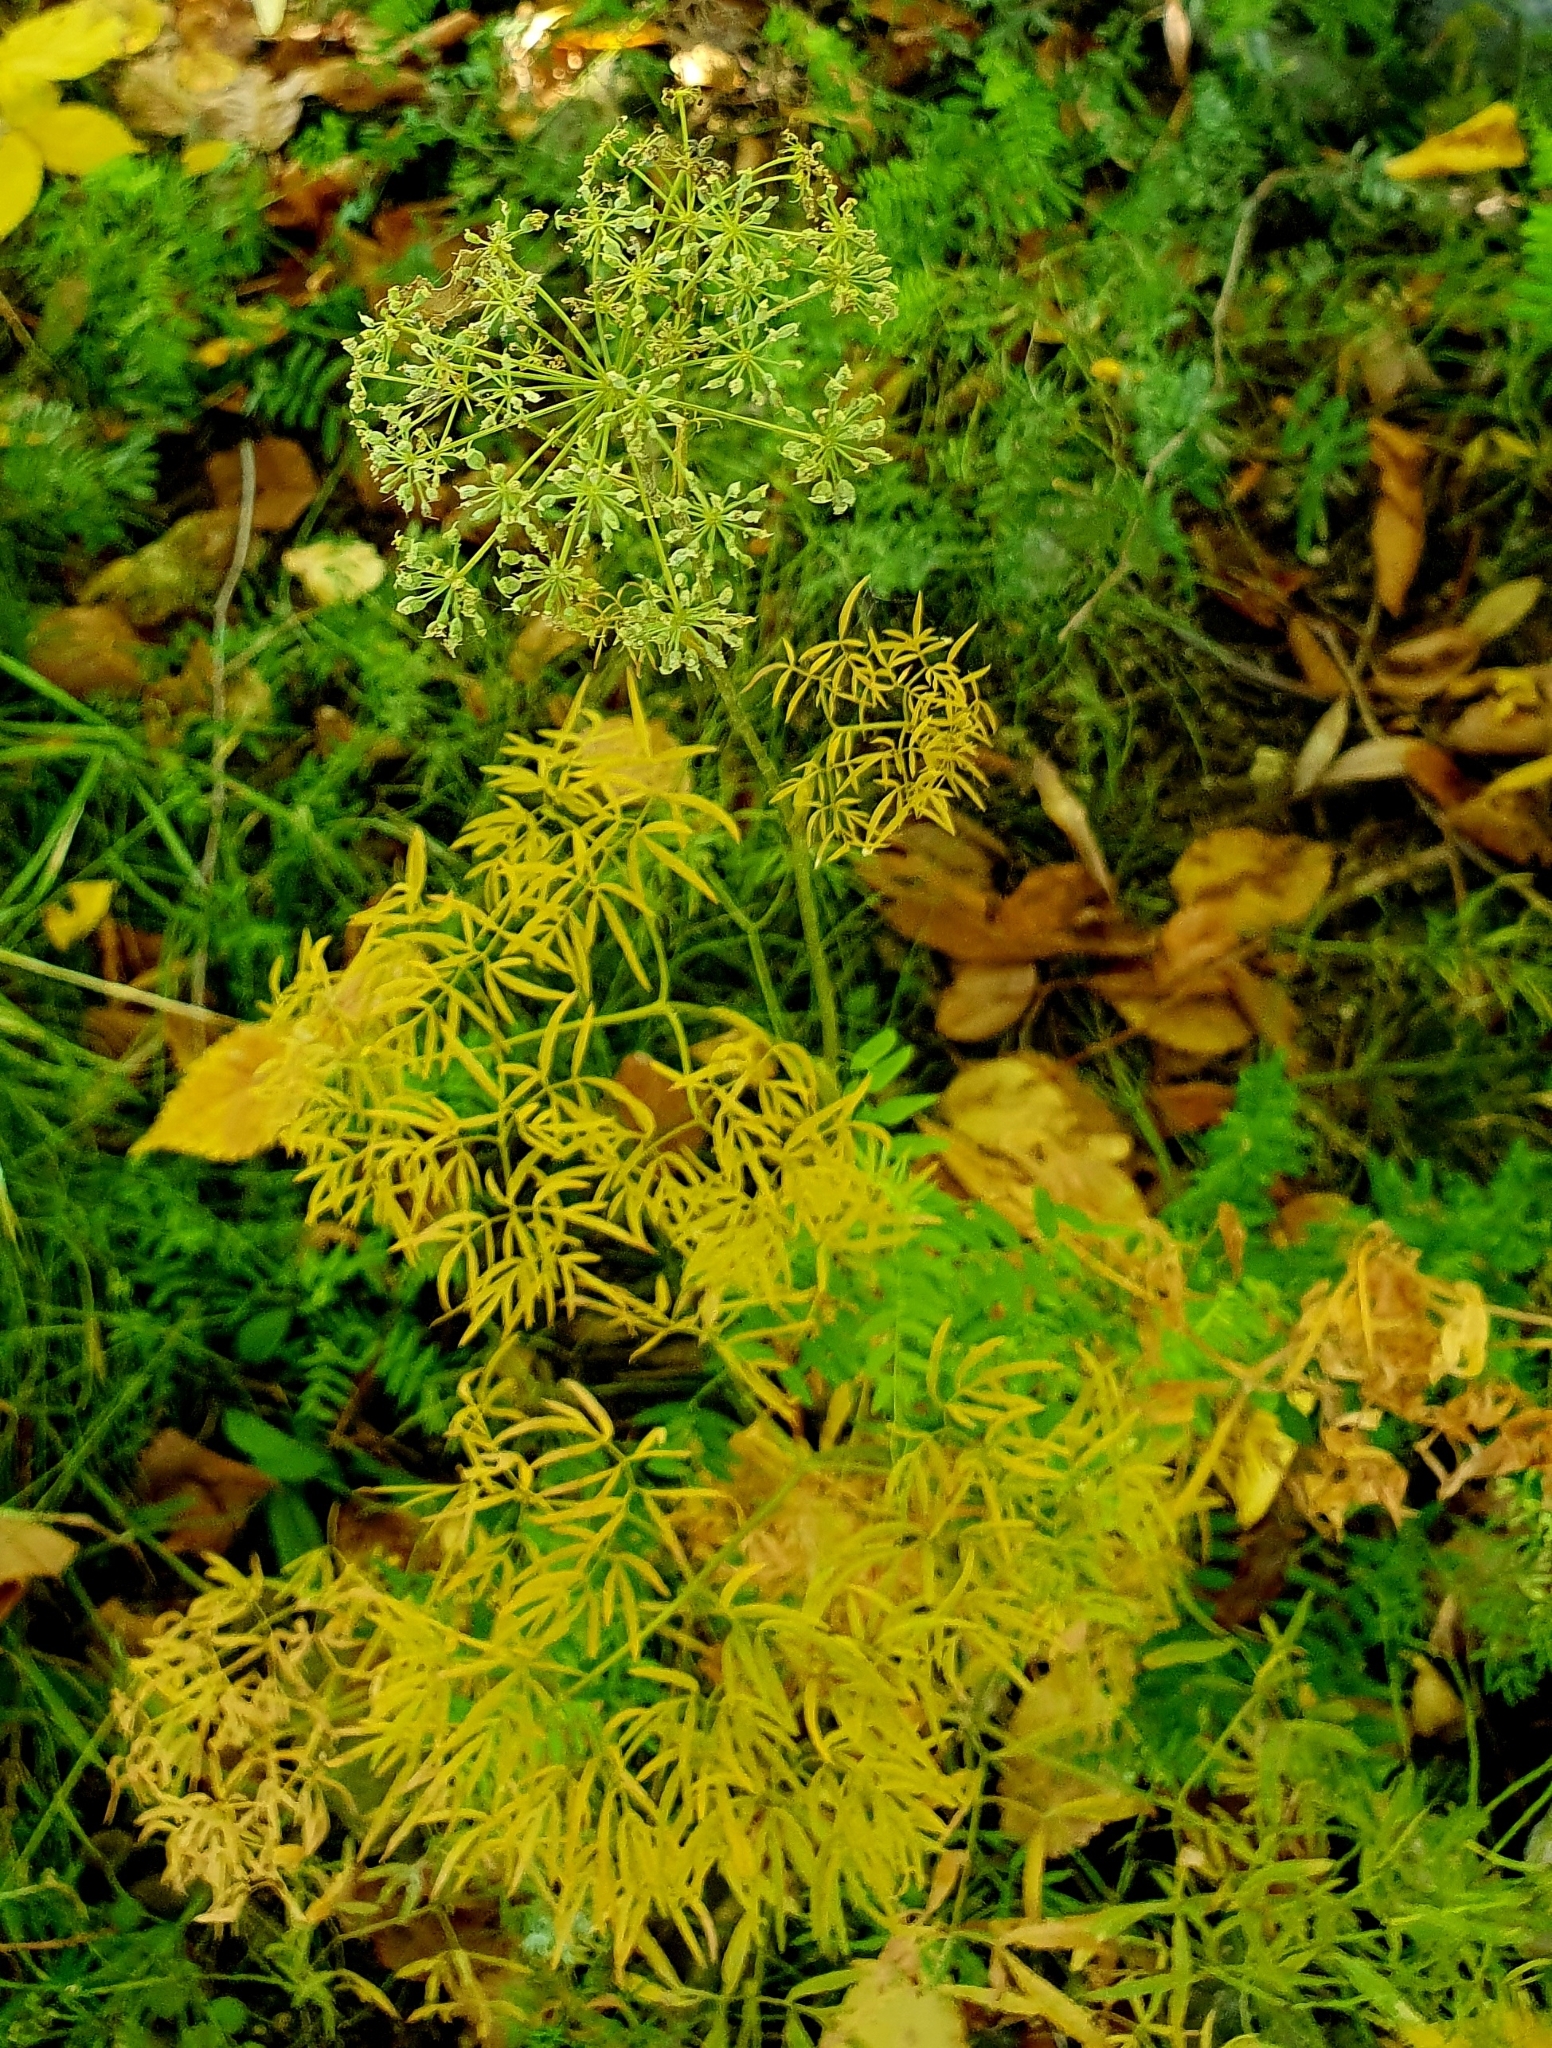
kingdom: Plantae
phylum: Tracheophyta
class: Magnoliopsida
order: Apiales
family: Apiaceae
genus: Cenolophium
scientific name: Cenolophium fischeri
